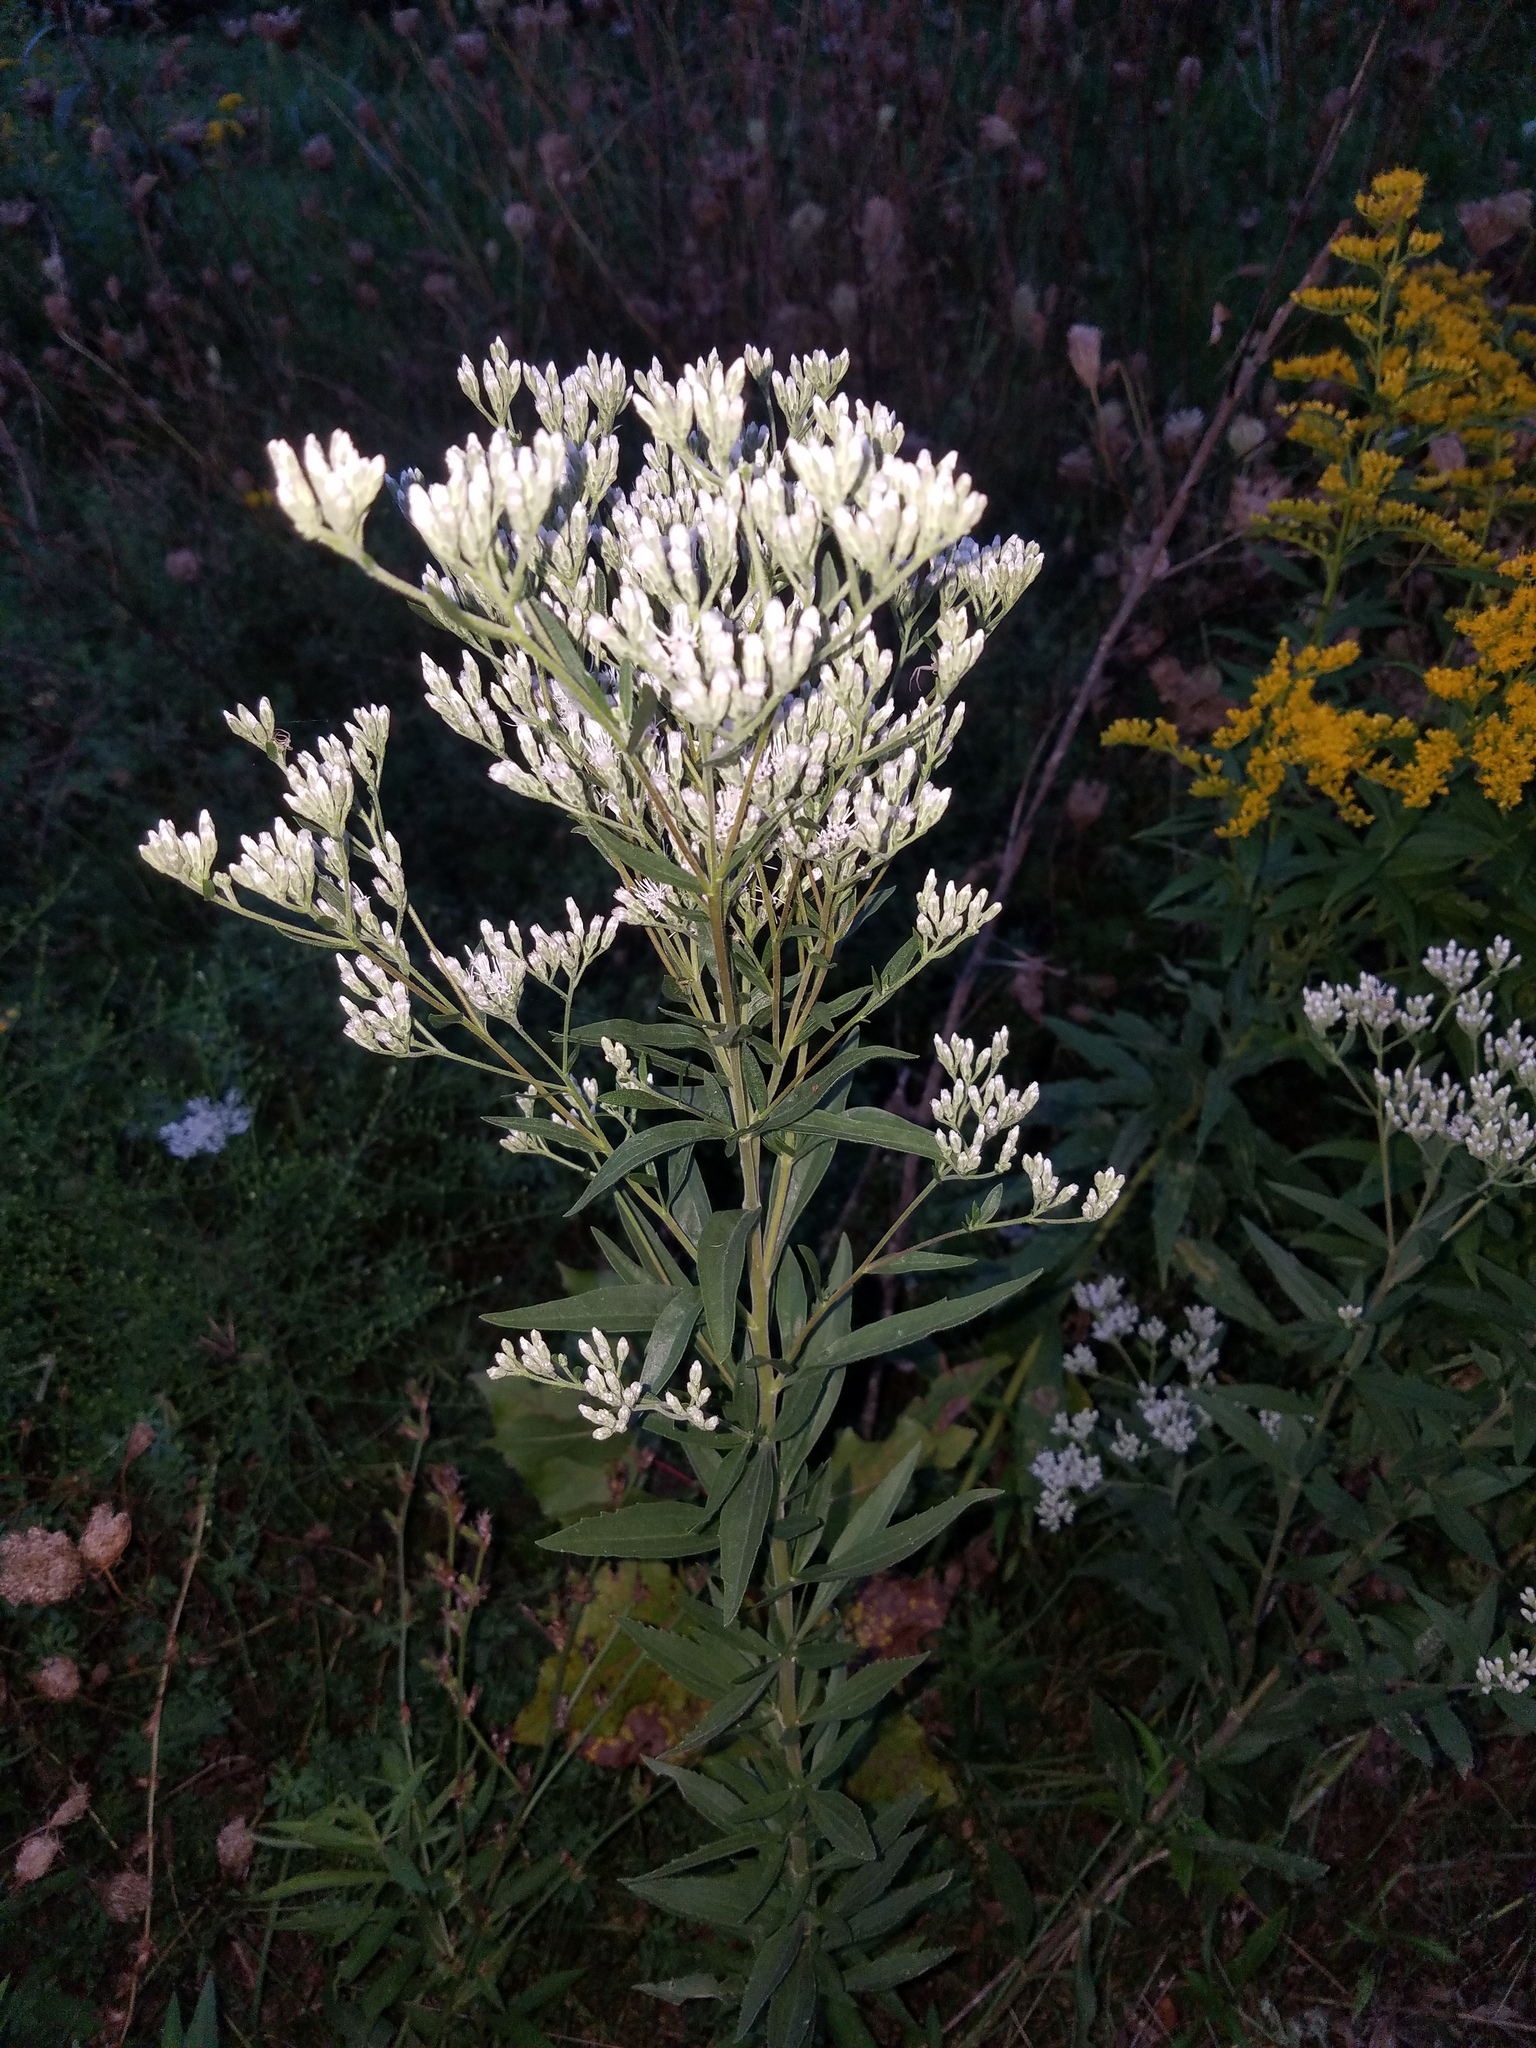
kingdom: Plantae
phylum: Tracheophyta
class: Magnoliopsida
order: Asterales
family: Asteraceae
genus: Eupatorium
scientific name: Eupatorium altissimum
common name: Tall thoroughwort
